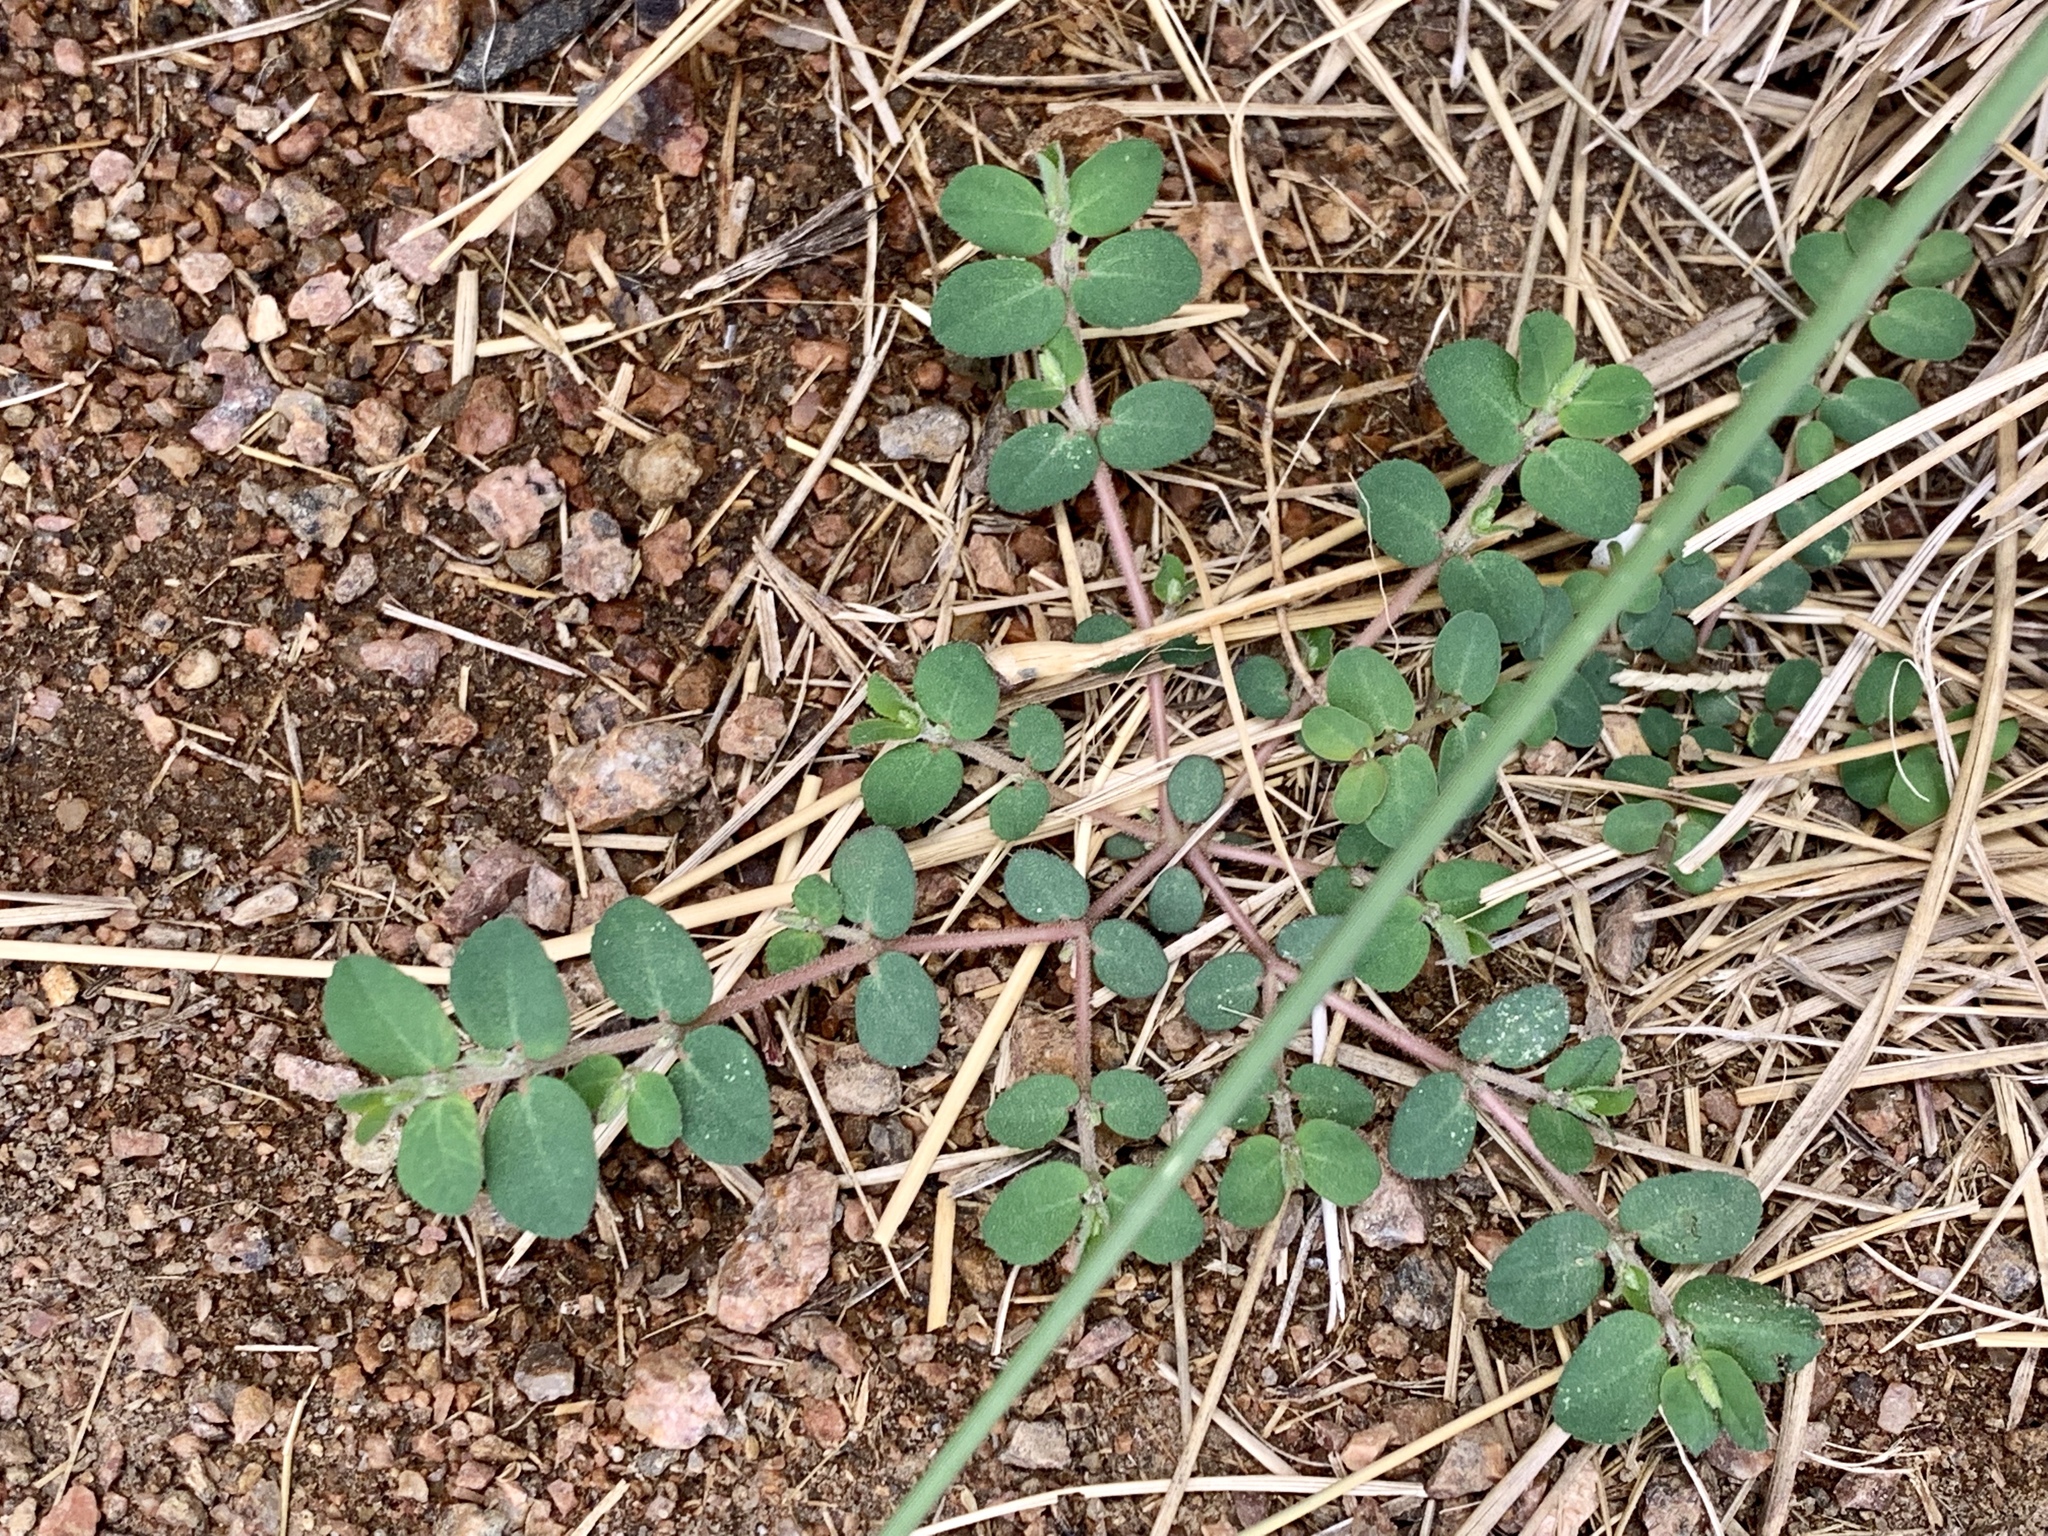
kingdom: Plantae
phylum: Tracheophyta
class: Magnoliopsida
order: Malpighiales
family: Euphorbiaceae
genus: Euphorbia
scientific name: Euphorbia prostrata
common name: Prostrate sandmat
